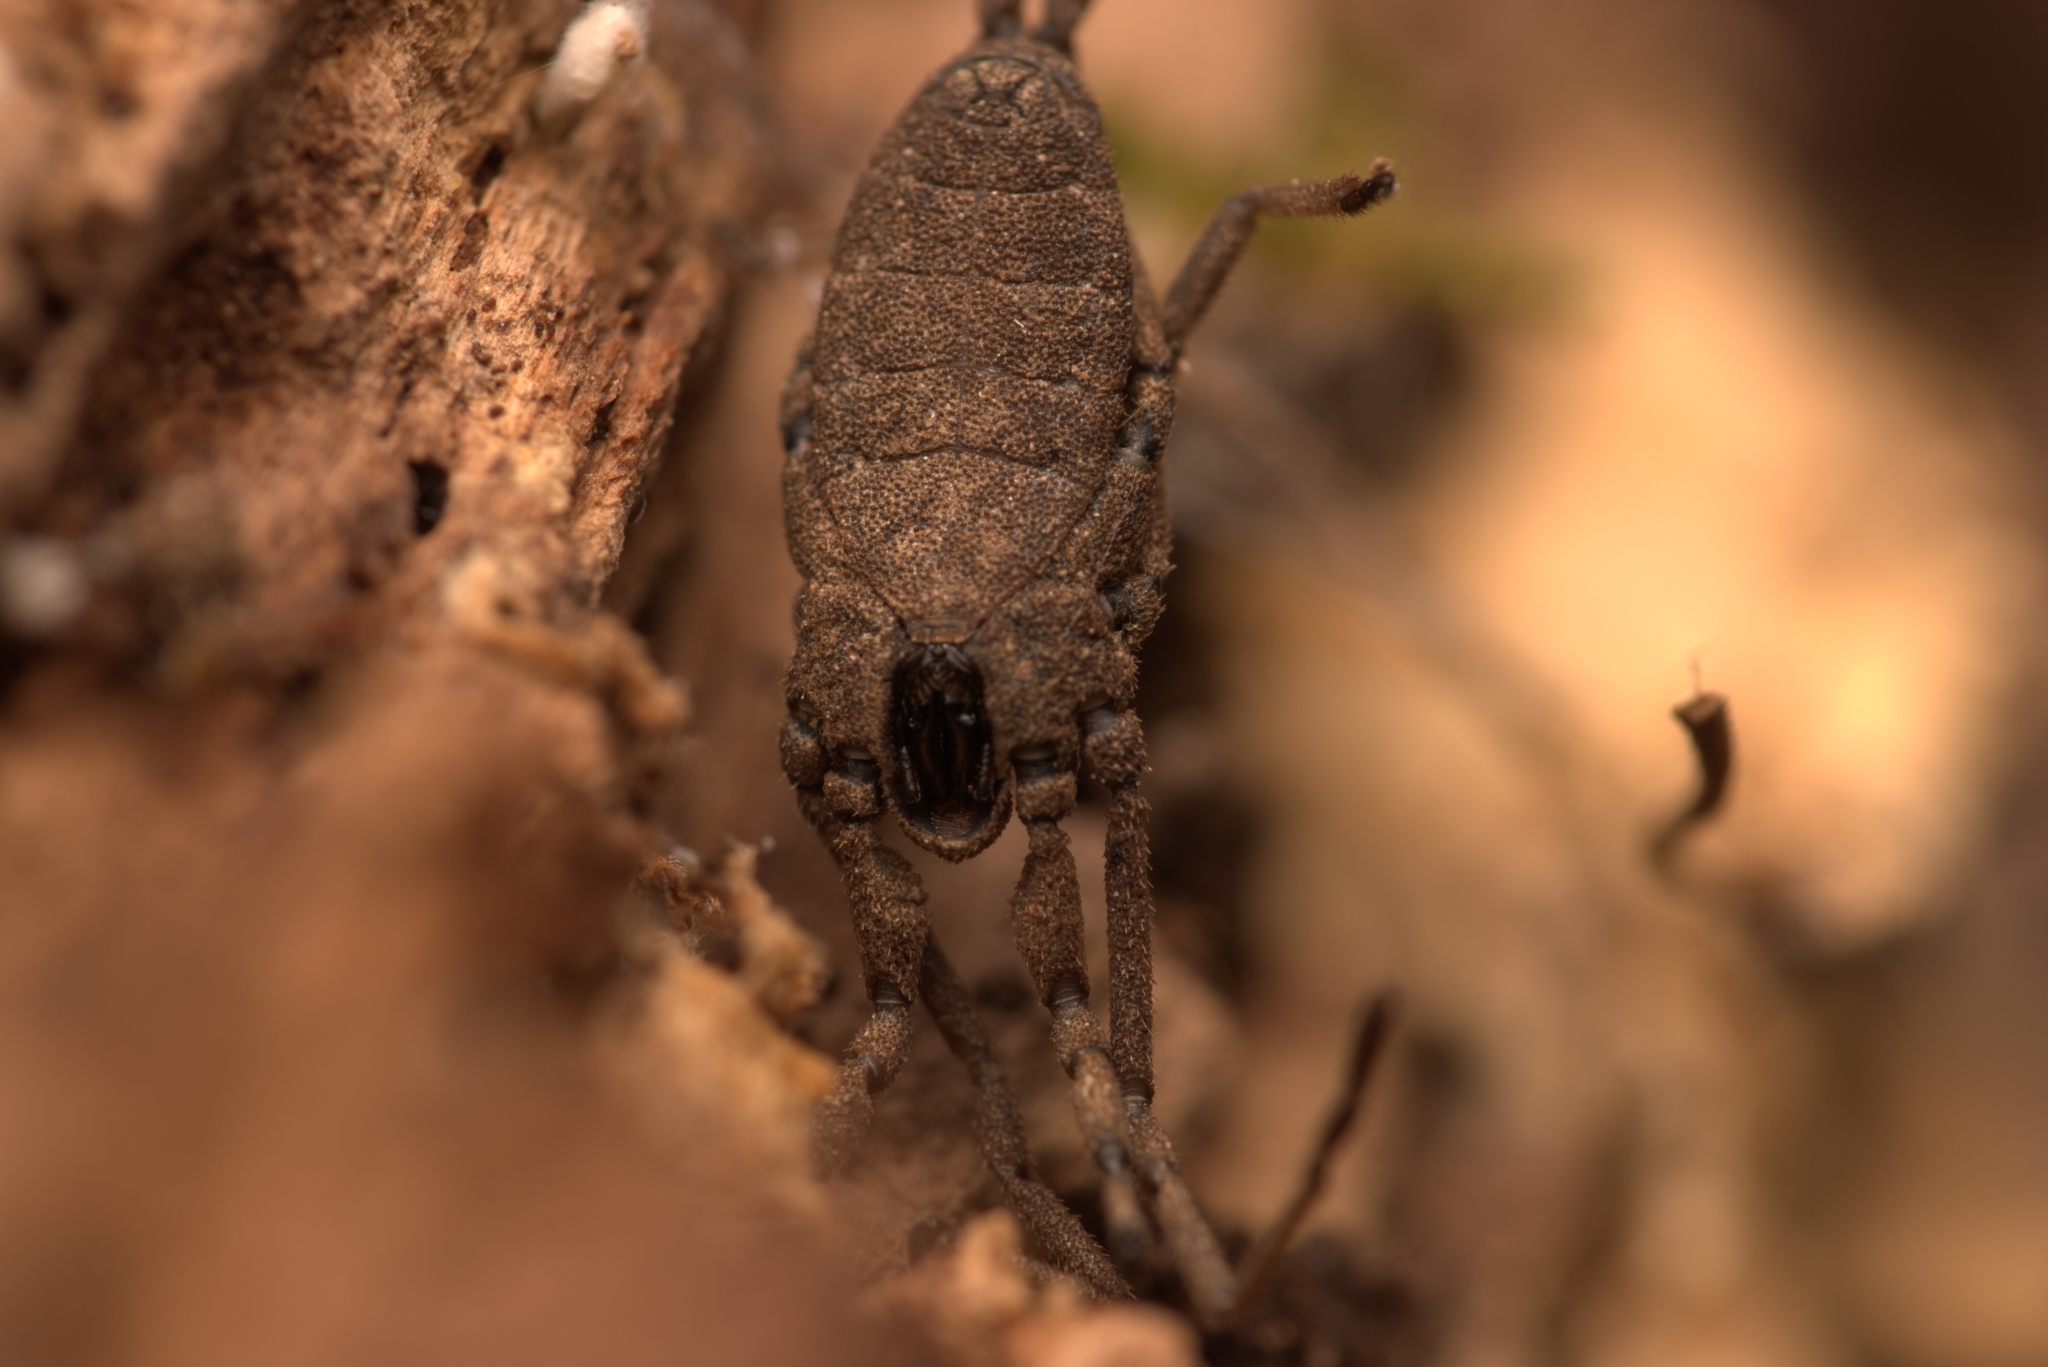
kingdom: Animalia
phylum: Arthropoda
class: Arachnida
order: Opiliones
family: Trogulidae
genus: Trogulus
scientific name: Trogulus nepaeformis
